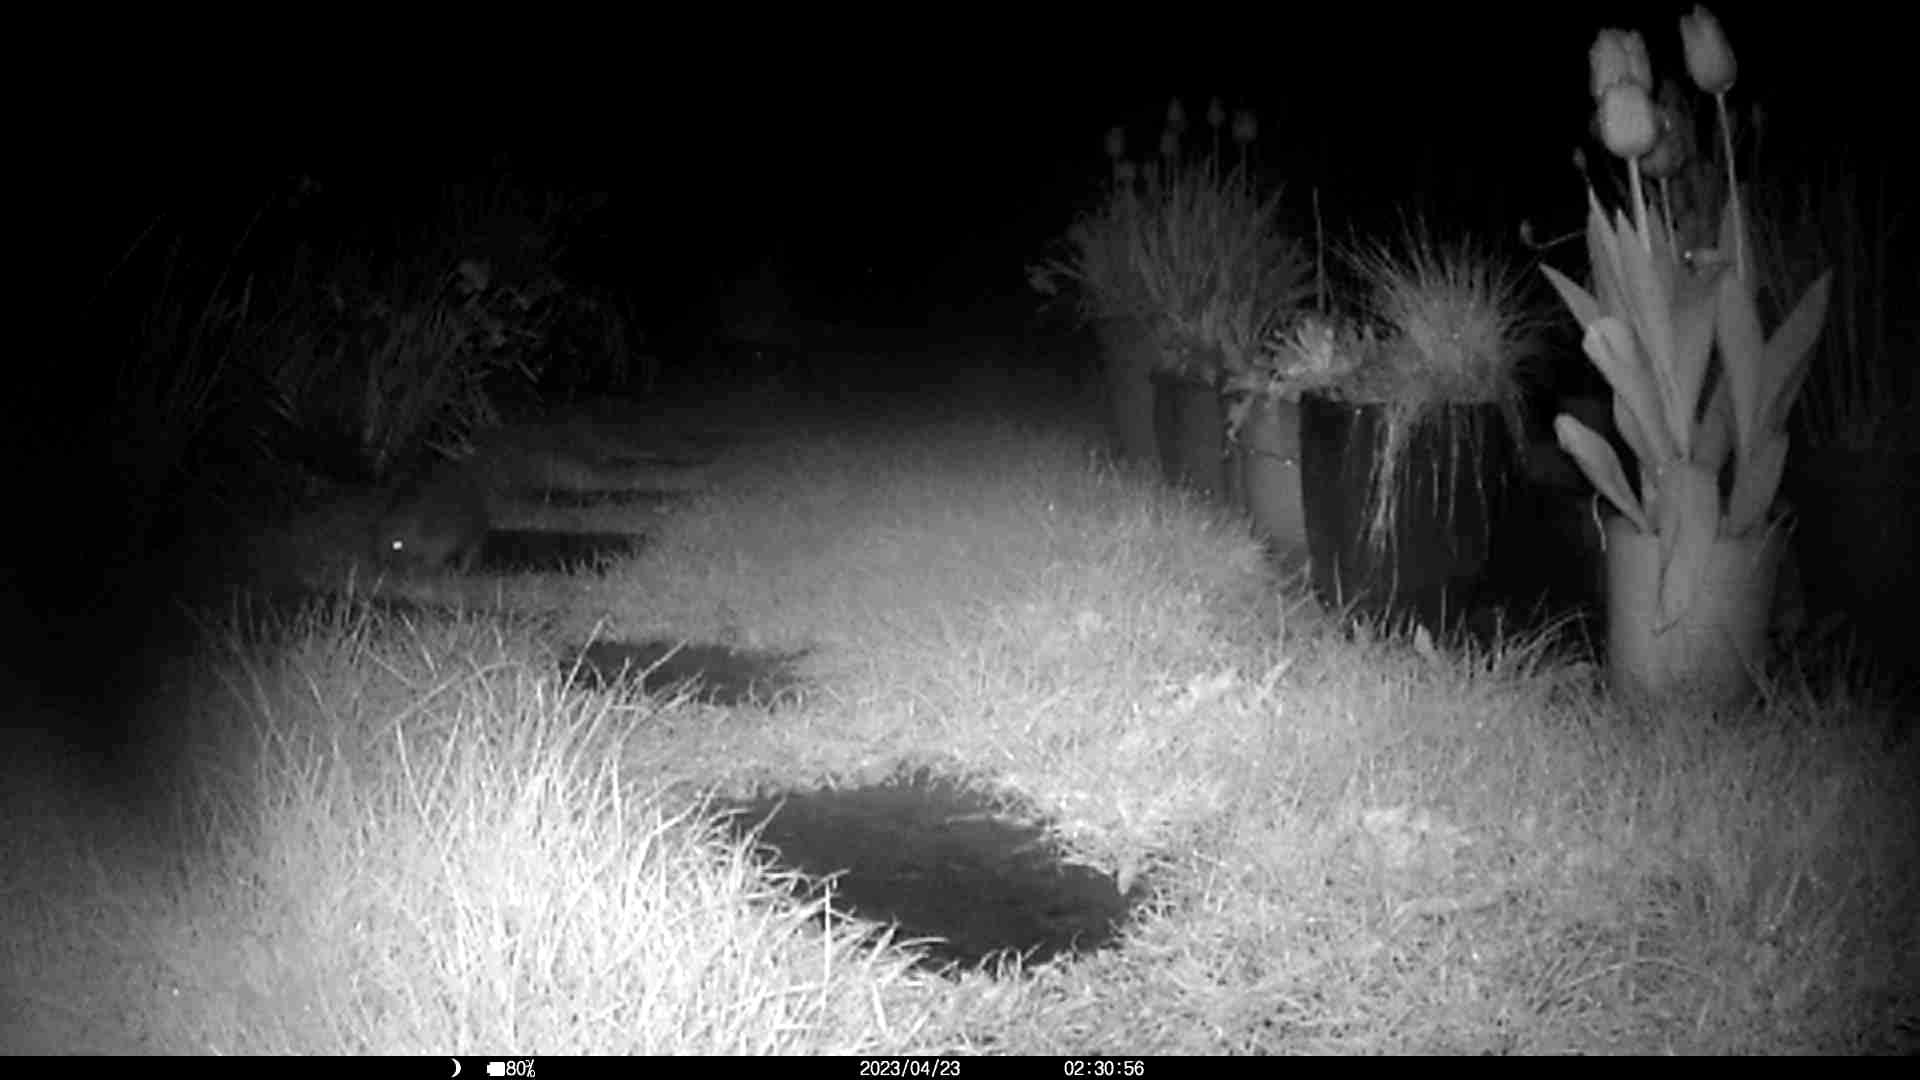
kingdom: Animalia
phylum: Chordata
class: Mammalia
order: Erinaceomorpha
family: Erinaceidae
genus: Erinaceus
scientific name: Erinaceus europaeus
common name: West european hedgehog
